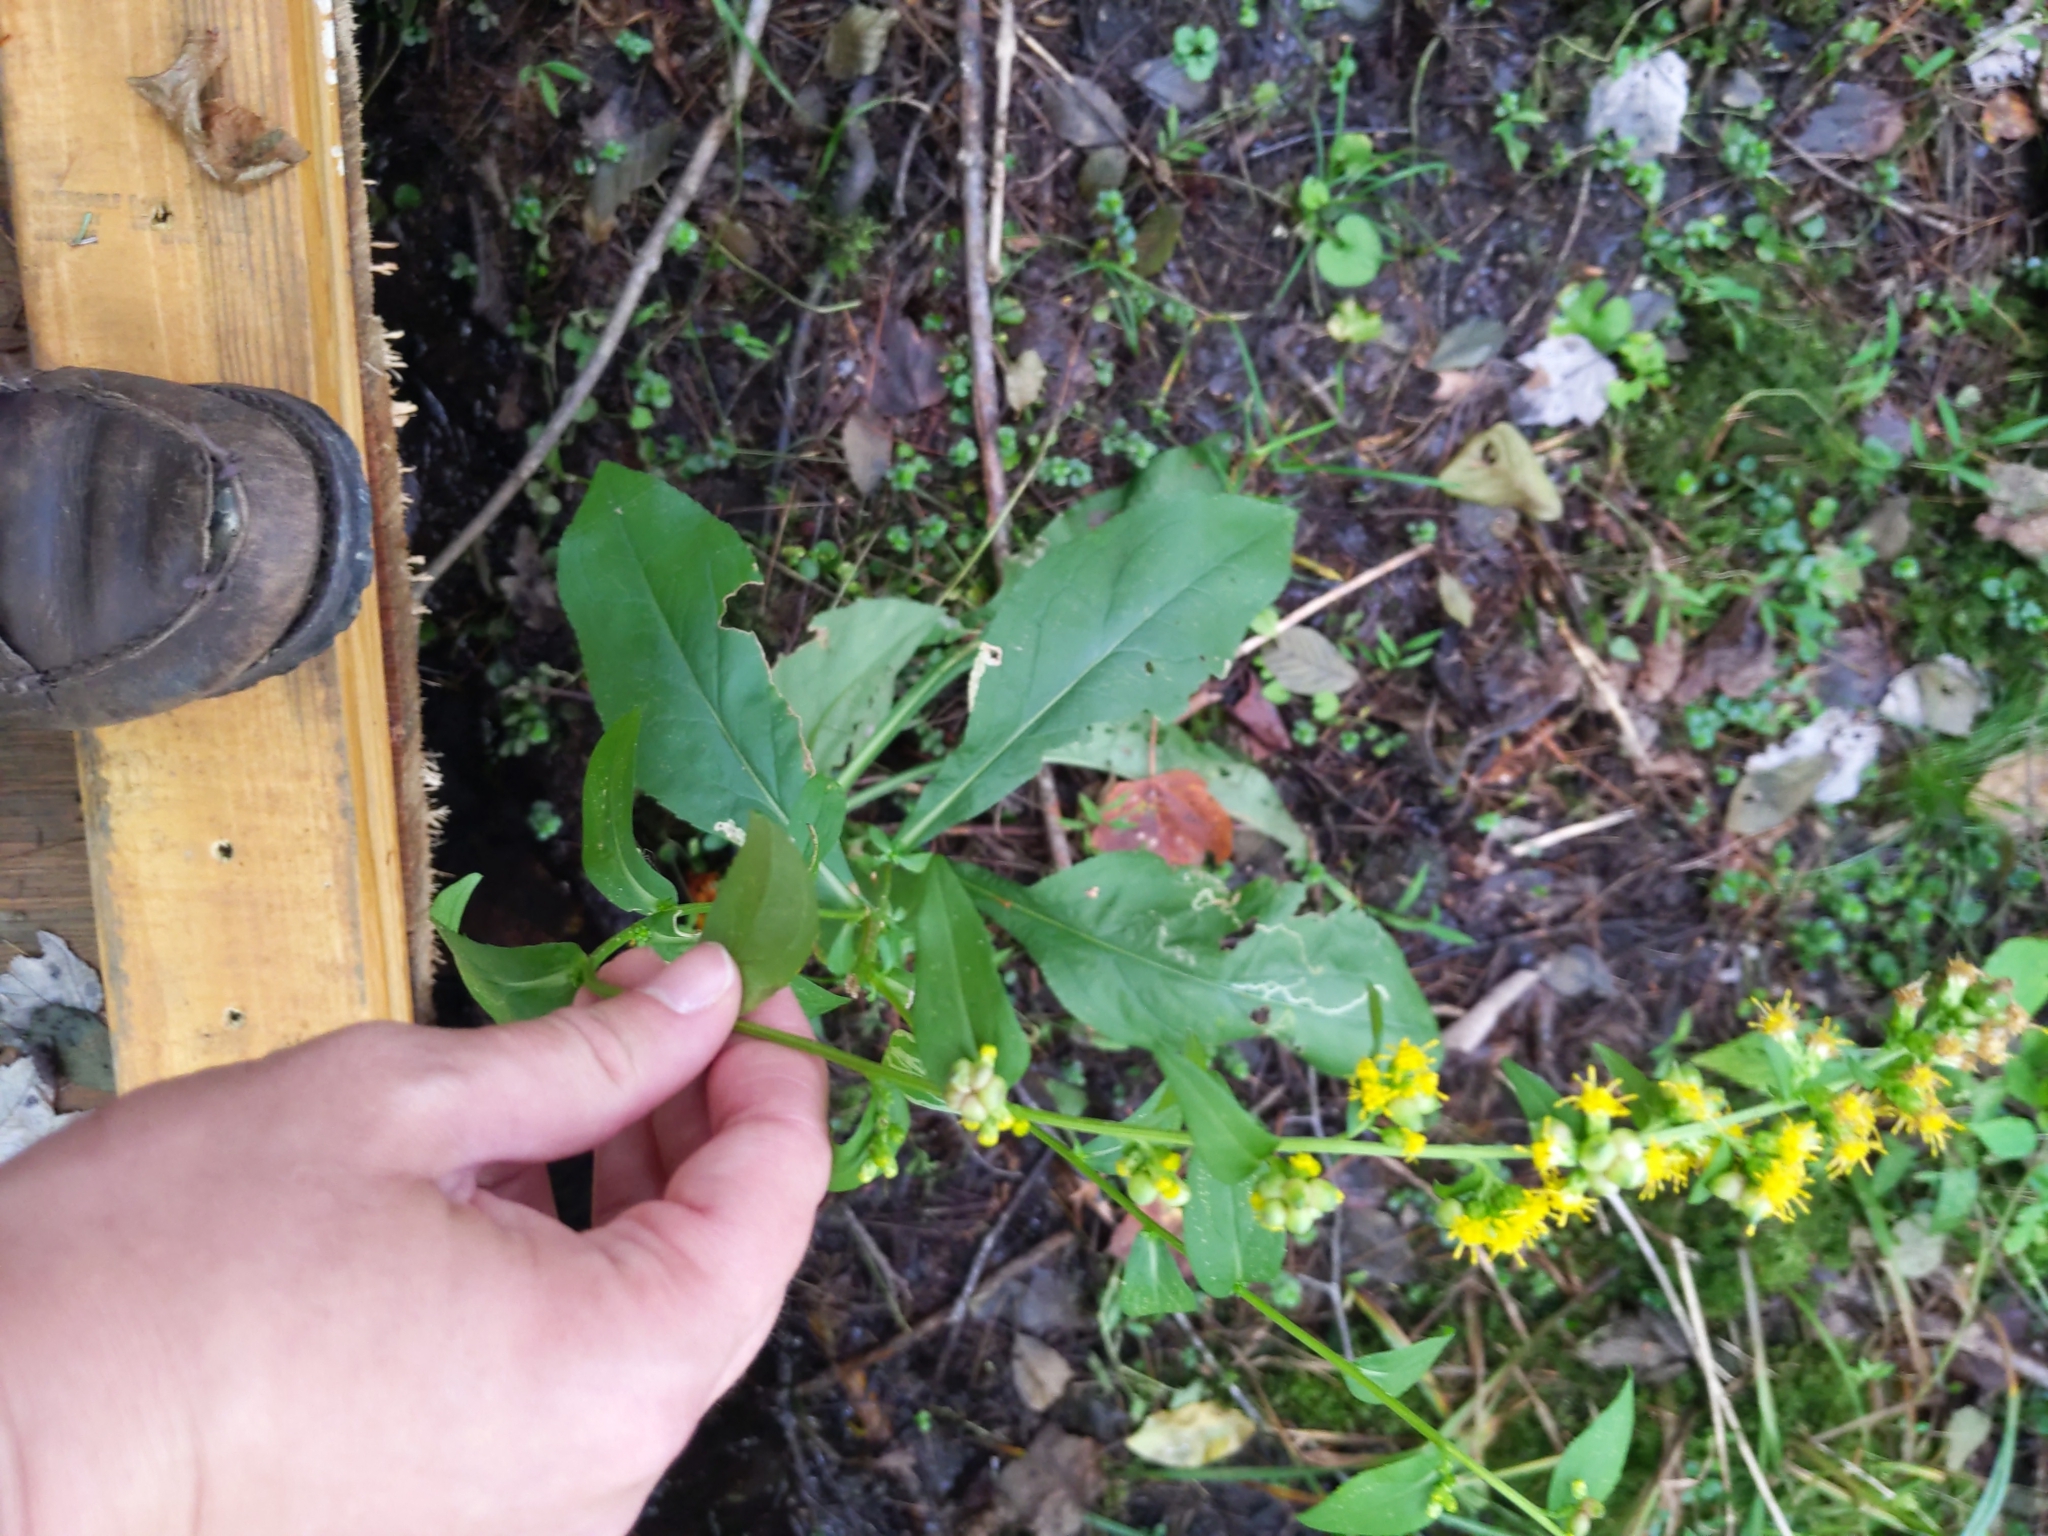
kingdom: Plantae
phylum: Tracheophyta
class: Magnoliopsida
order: Asterales
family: Asteraceae
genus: Solidago
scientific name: Solidago patula
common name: Rough-leaf goldenrod
